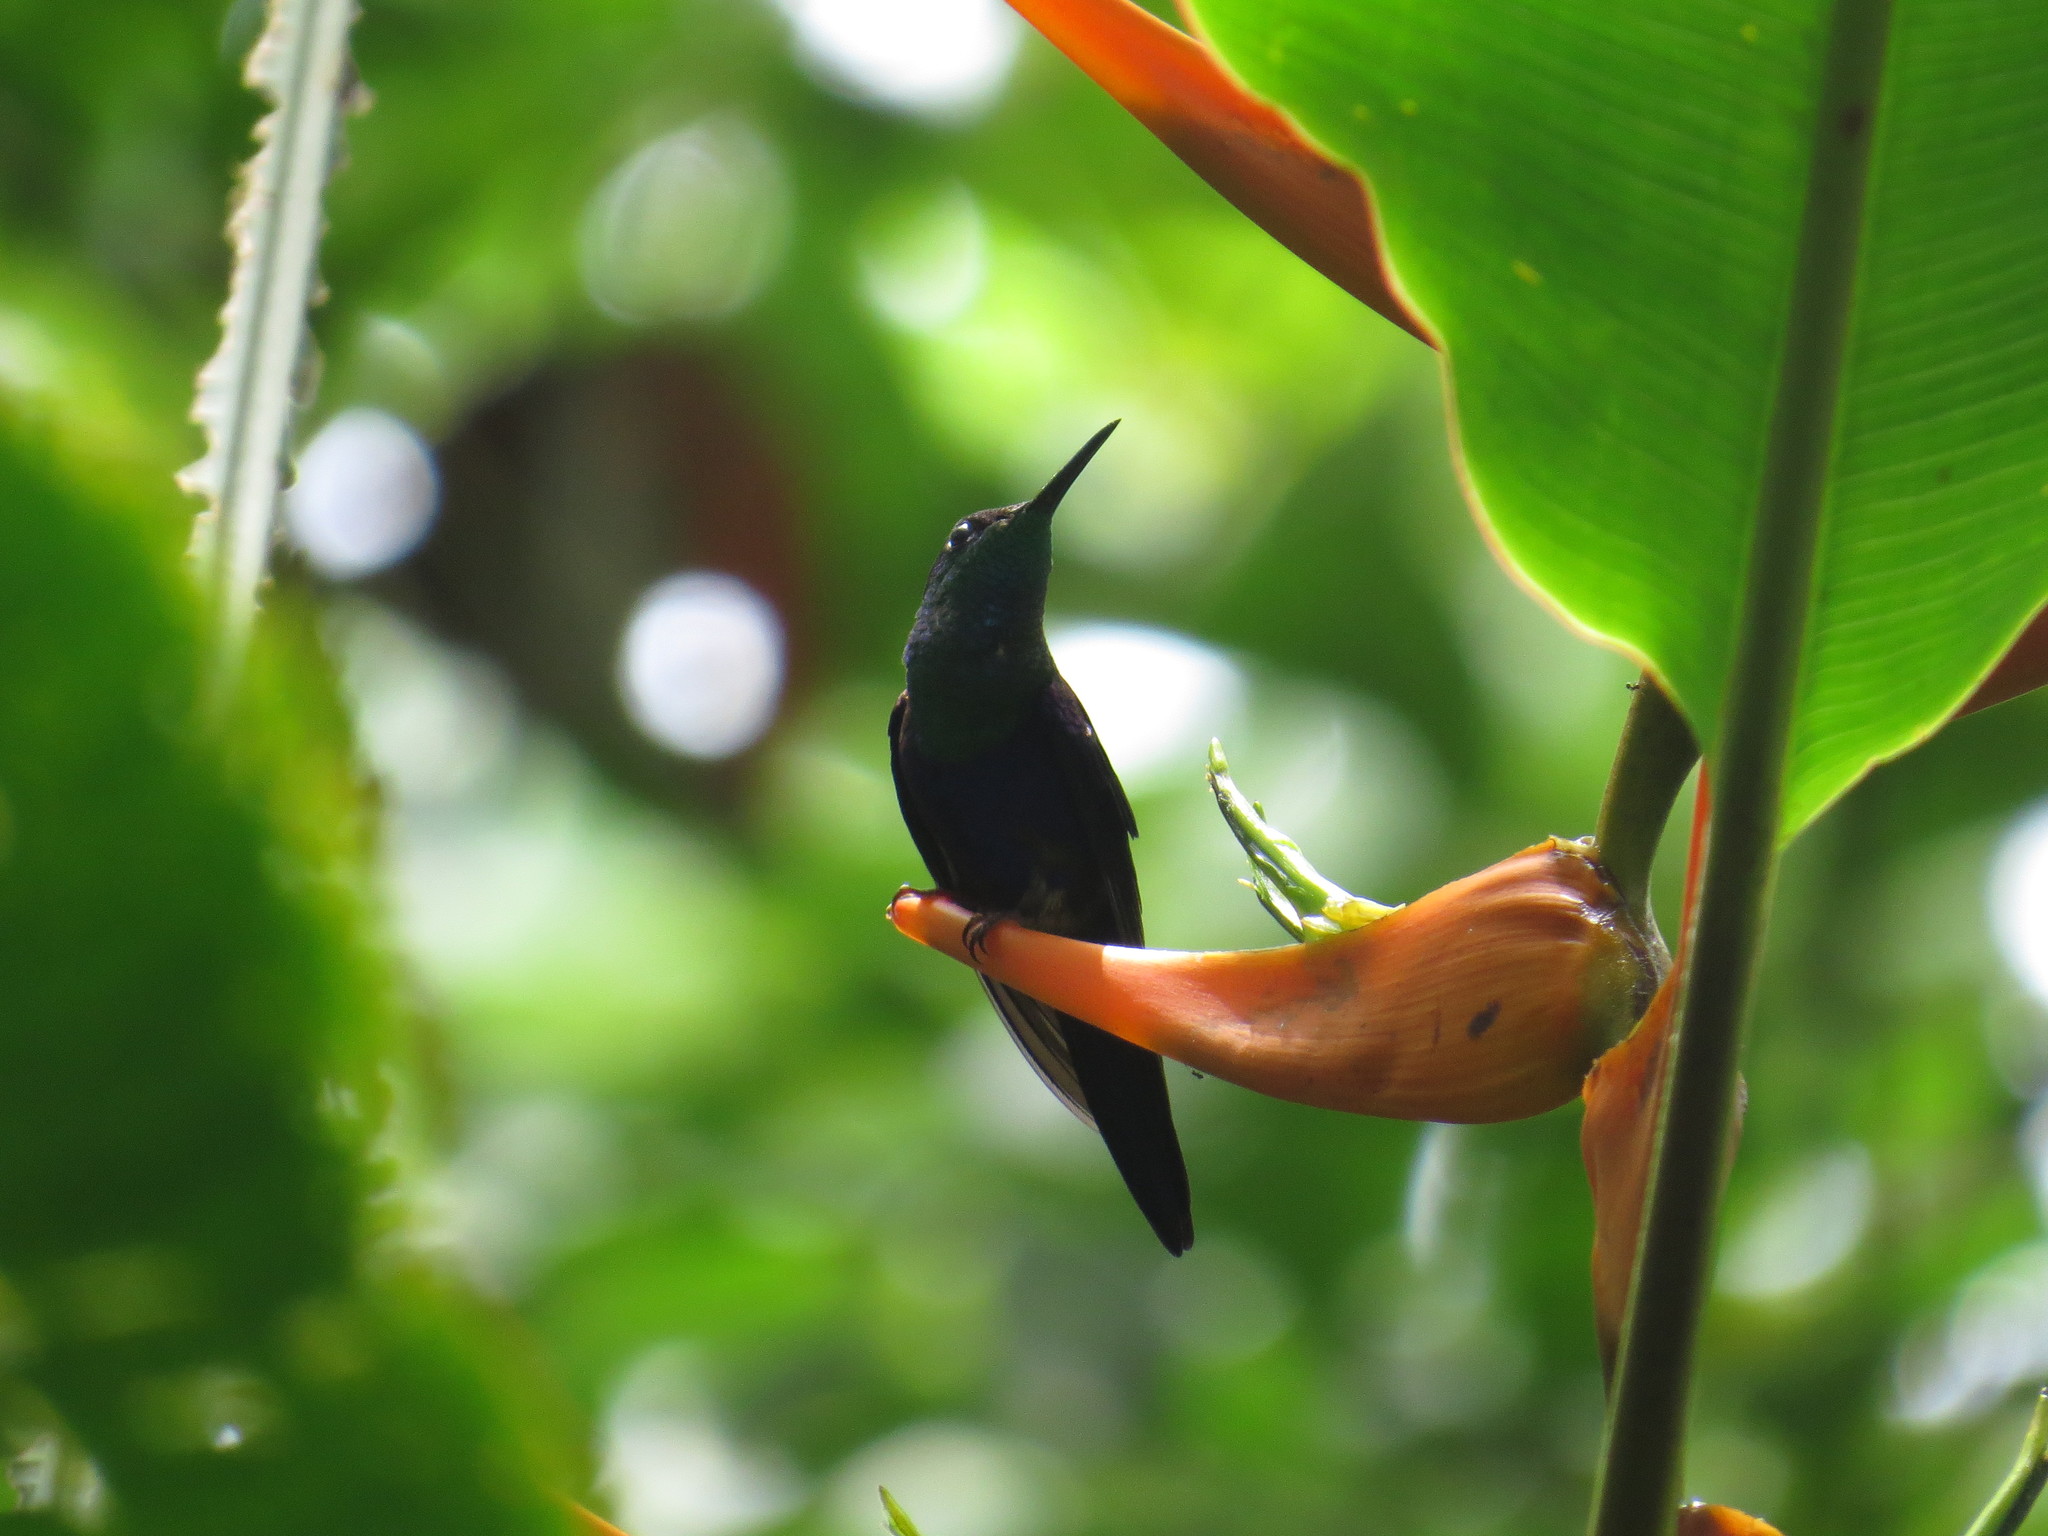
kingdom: Animalia
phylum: Chordata
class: Aves
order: Apodiformes
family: Trochilidae
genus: Thalurania
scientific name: Thalurania colombica
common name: Crowned woodnymph
